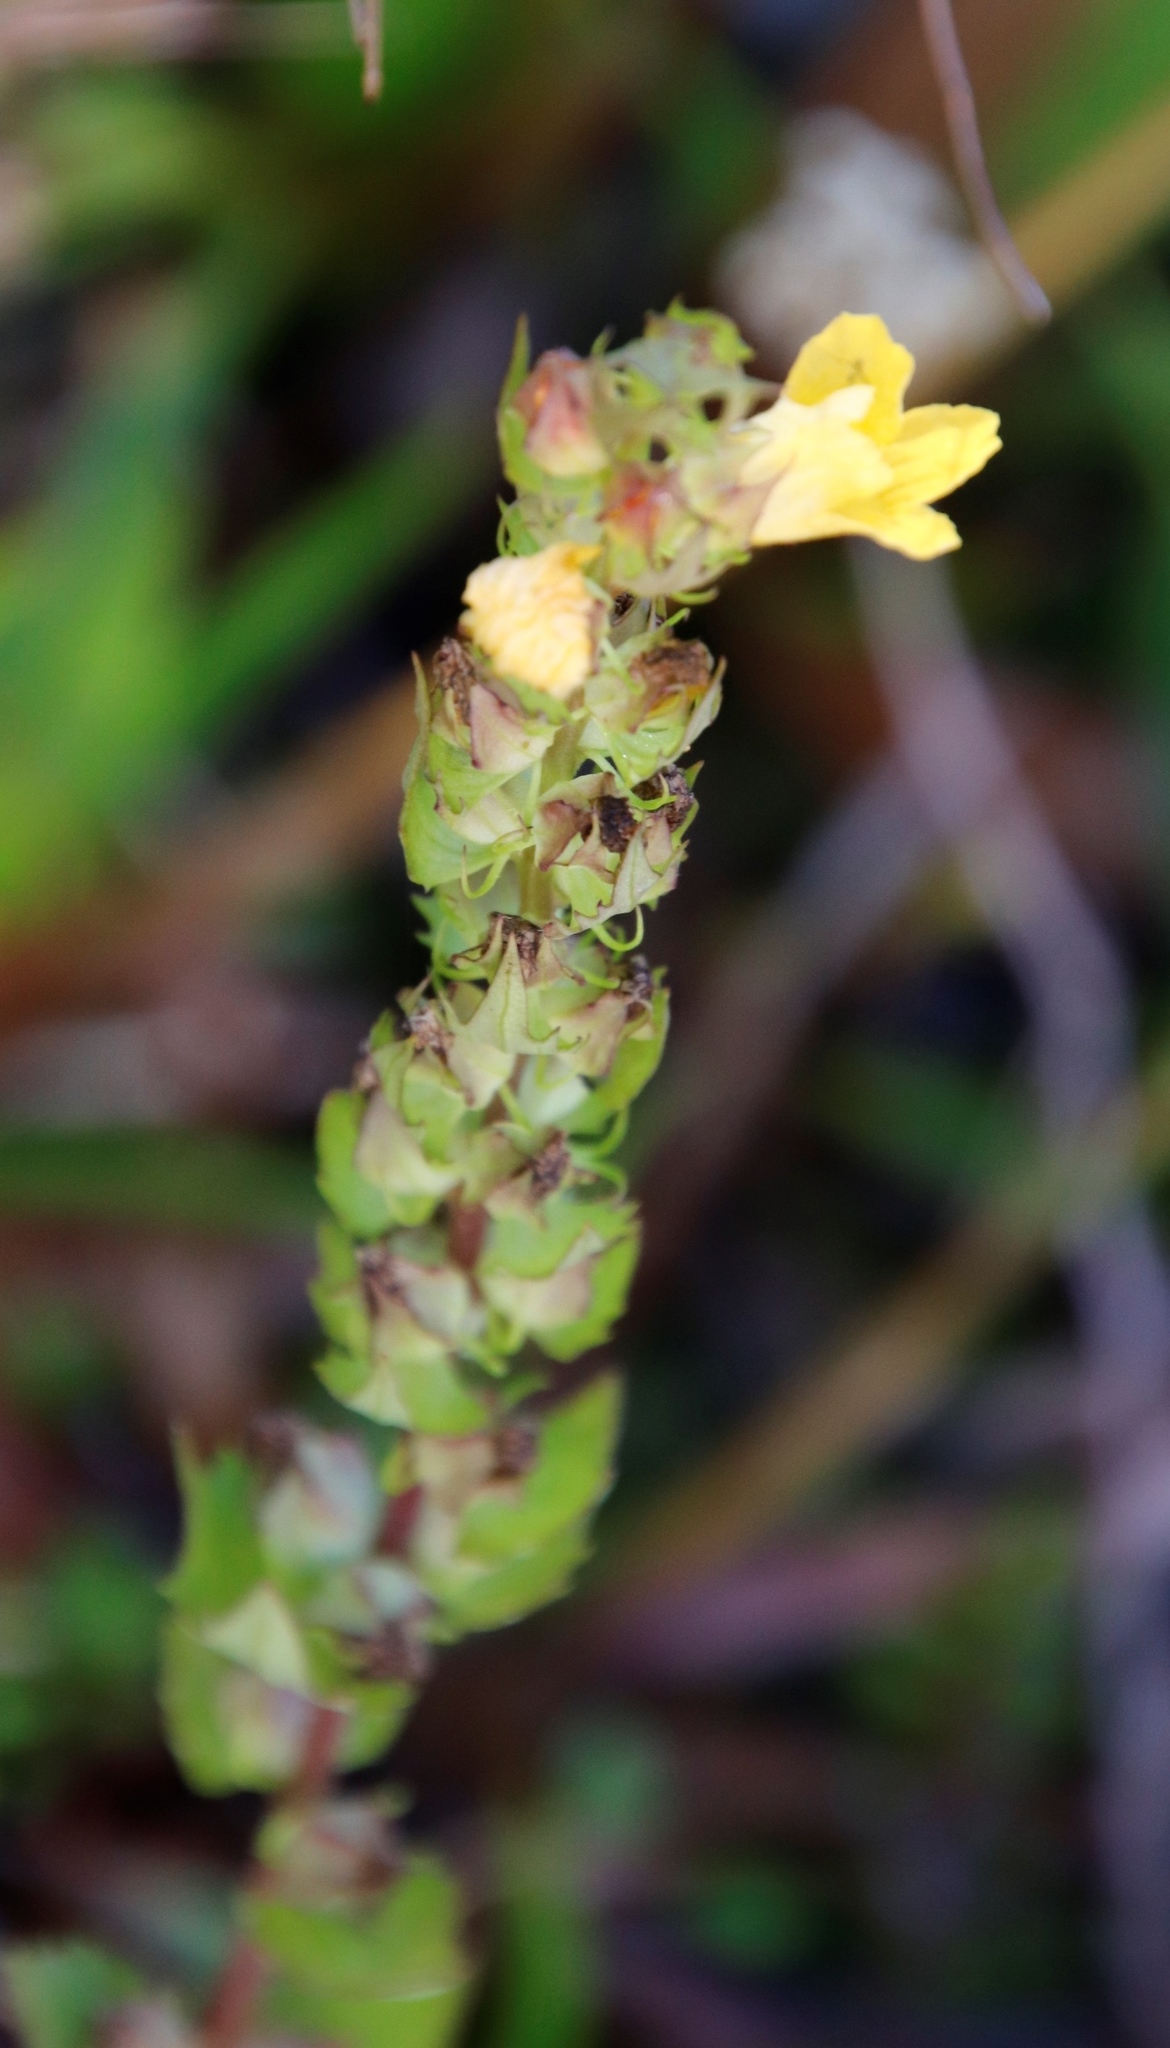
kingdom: Plantae
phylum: Tracheophyta
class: Magnoliopsida
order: Lamiales
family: Orobanchaceae
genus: Alectra
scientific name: Alectra sessiliflora
